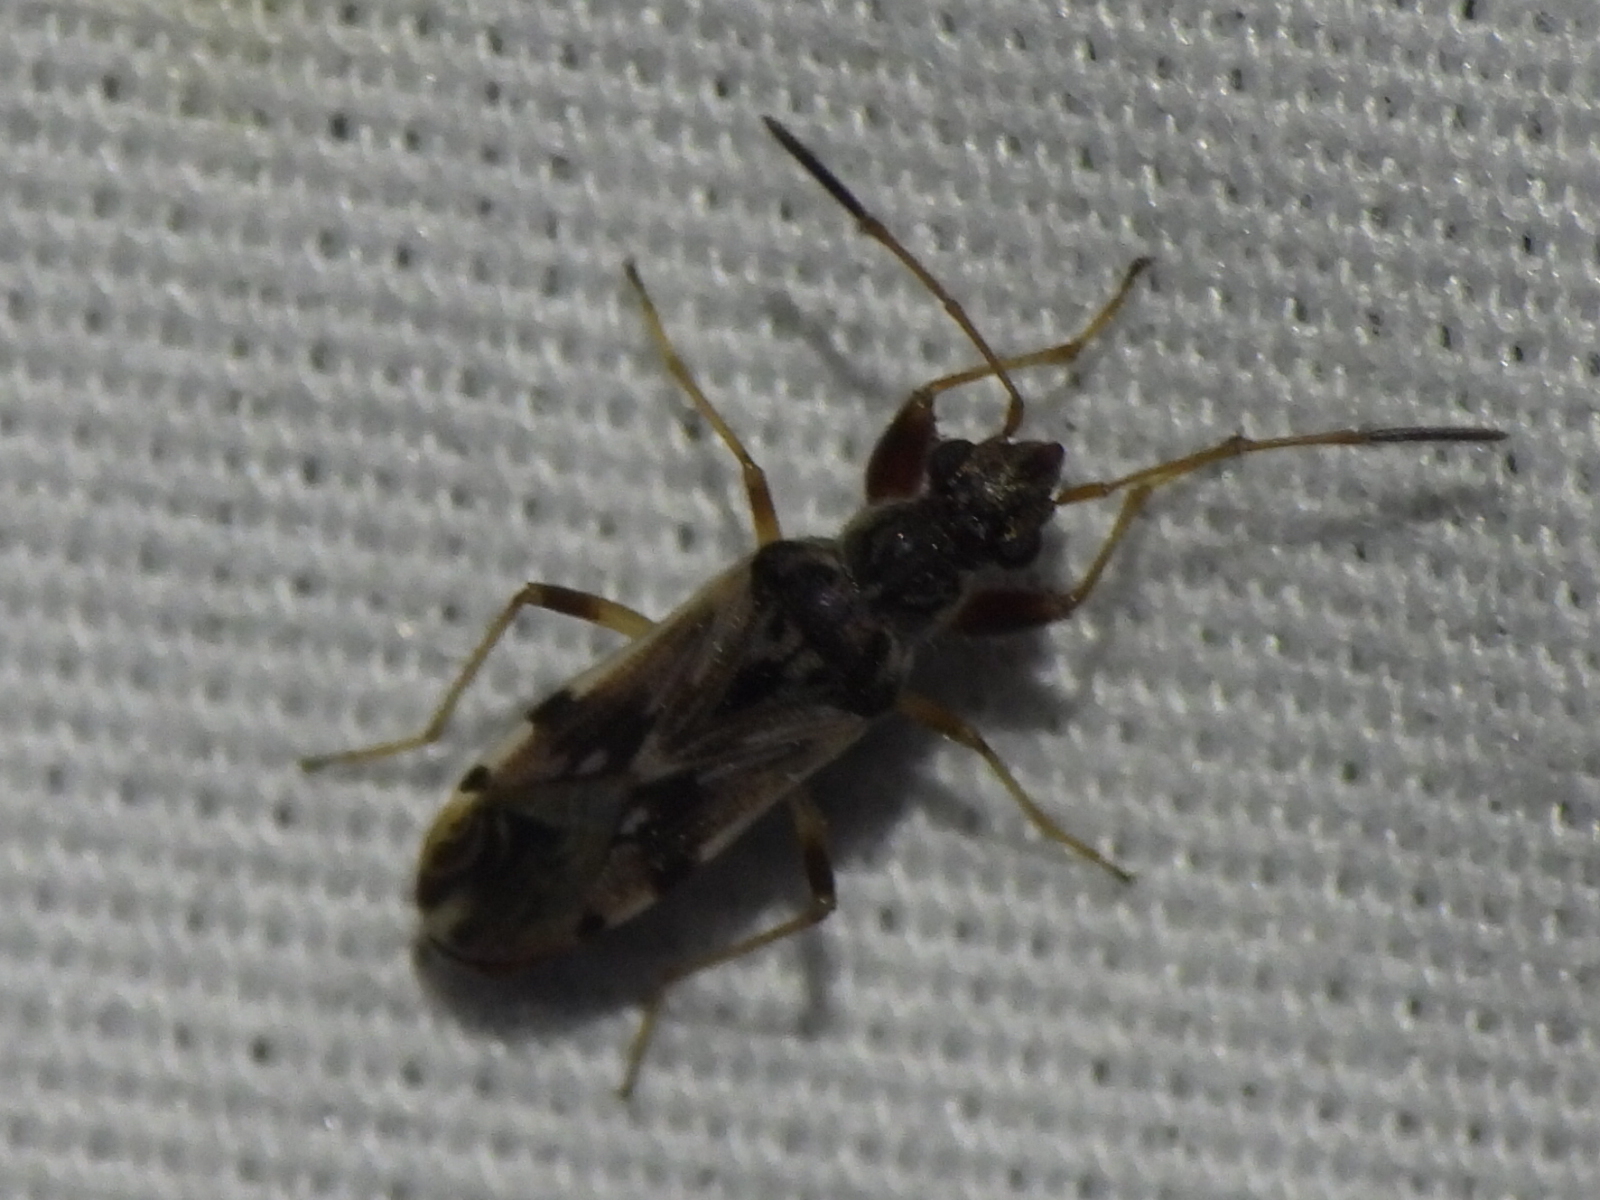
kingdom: Animalia
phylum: Arthropoda
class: Insecta
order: Hemiptera
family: Rhyparochromidae
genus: Neopamera
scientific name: Neopamera bilobata
